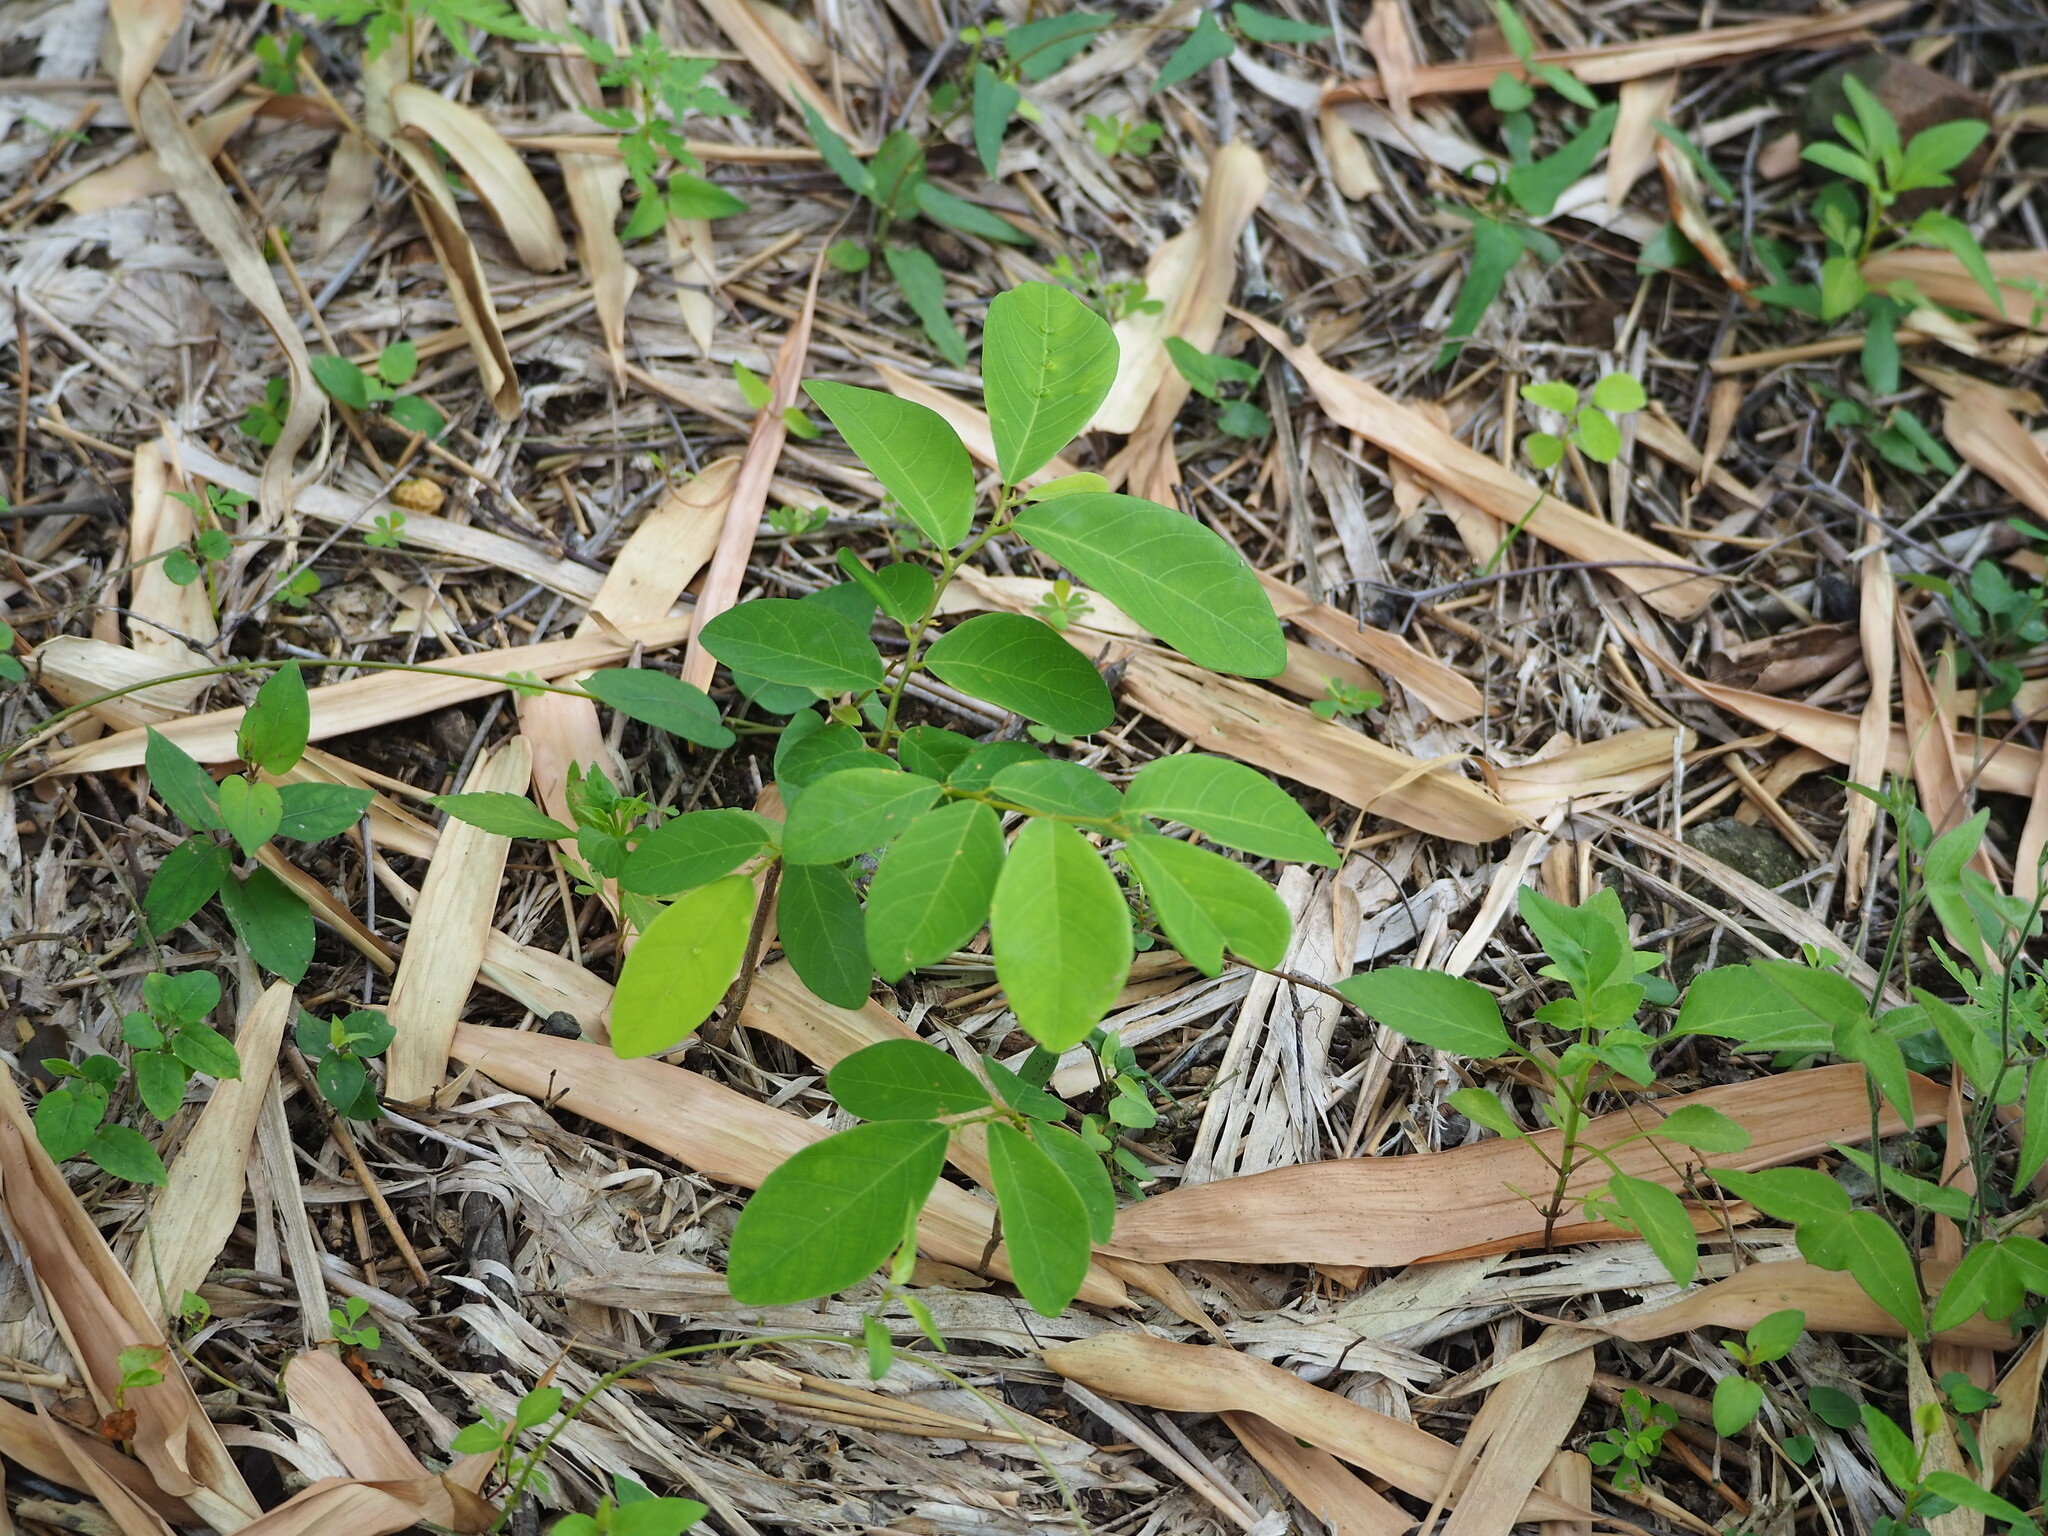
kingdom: Plantae
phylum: Tracheophyta
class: Magnoliopsida
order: Malpighiales
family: Phyllanthaceae
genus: Bridelia
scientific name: Bridelia tomentosa
